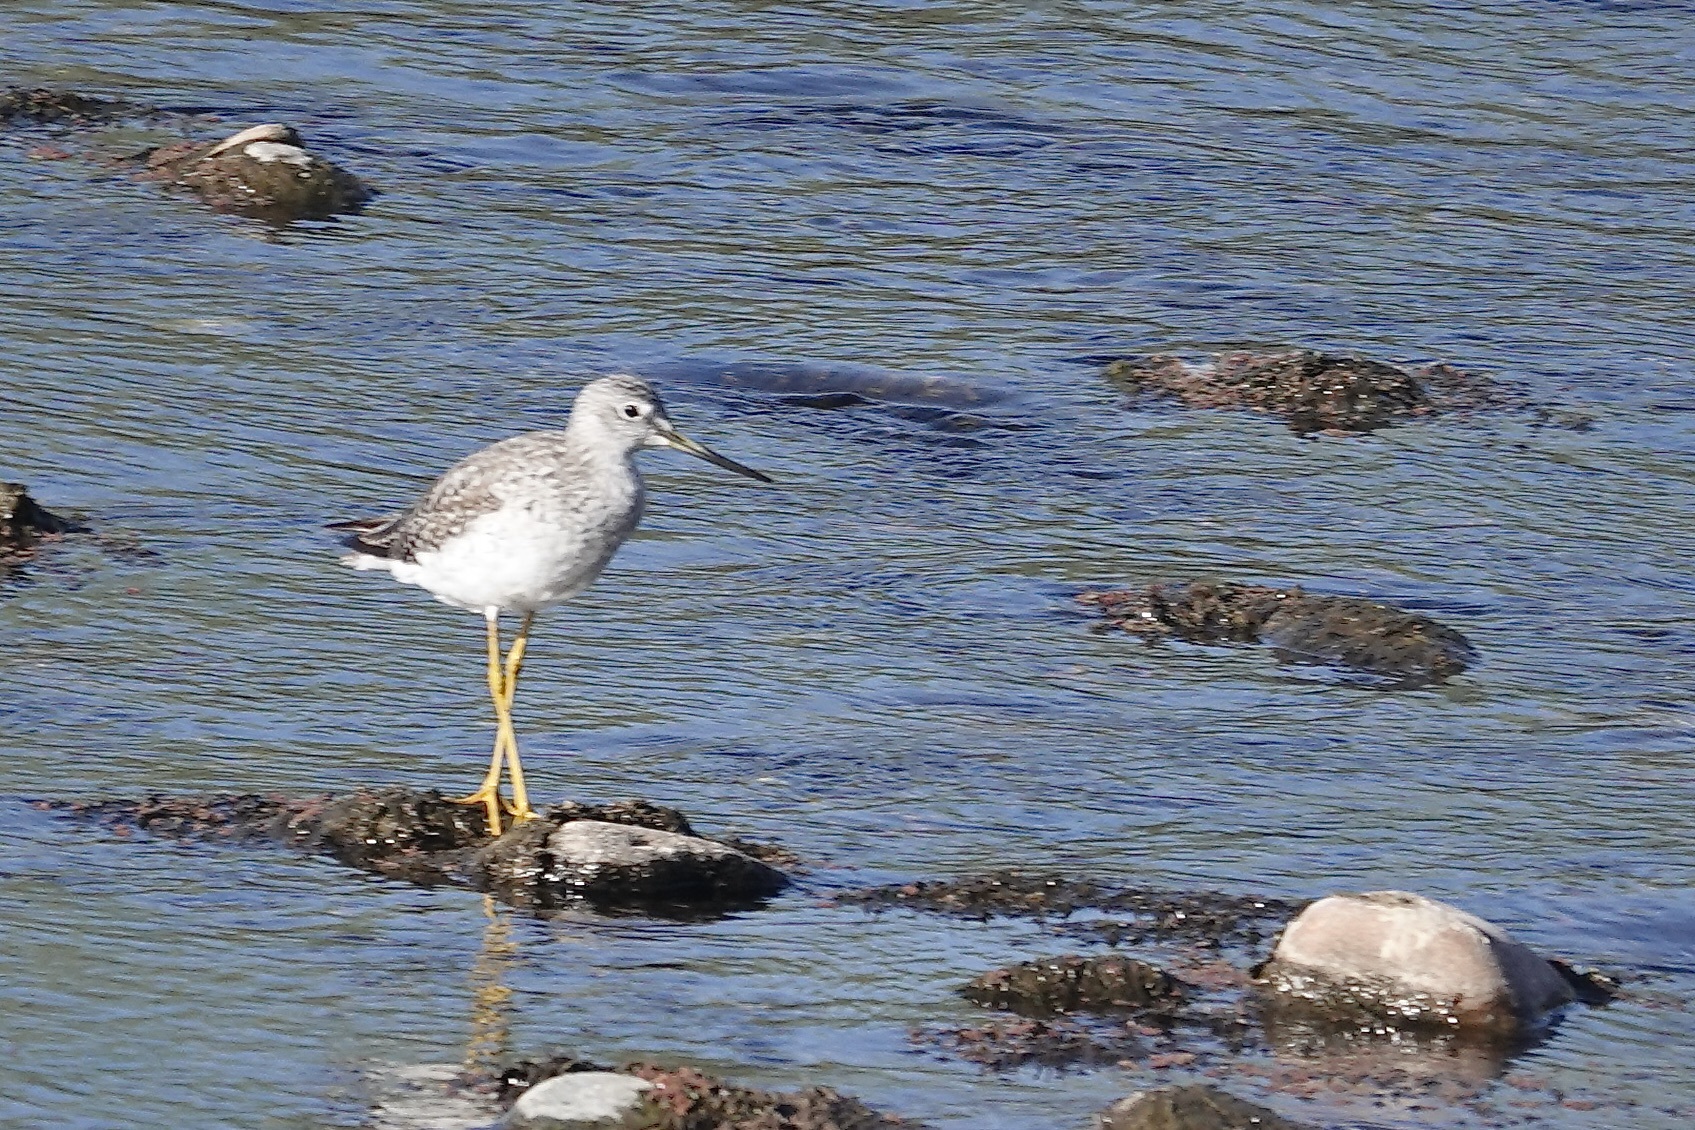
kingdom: Animalia
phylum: Chordata
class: Aves
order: Charadriiformes
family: Scolopacidae
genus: Tringa
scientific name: Tringa melanoleuca
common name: Greater yellowlegs
